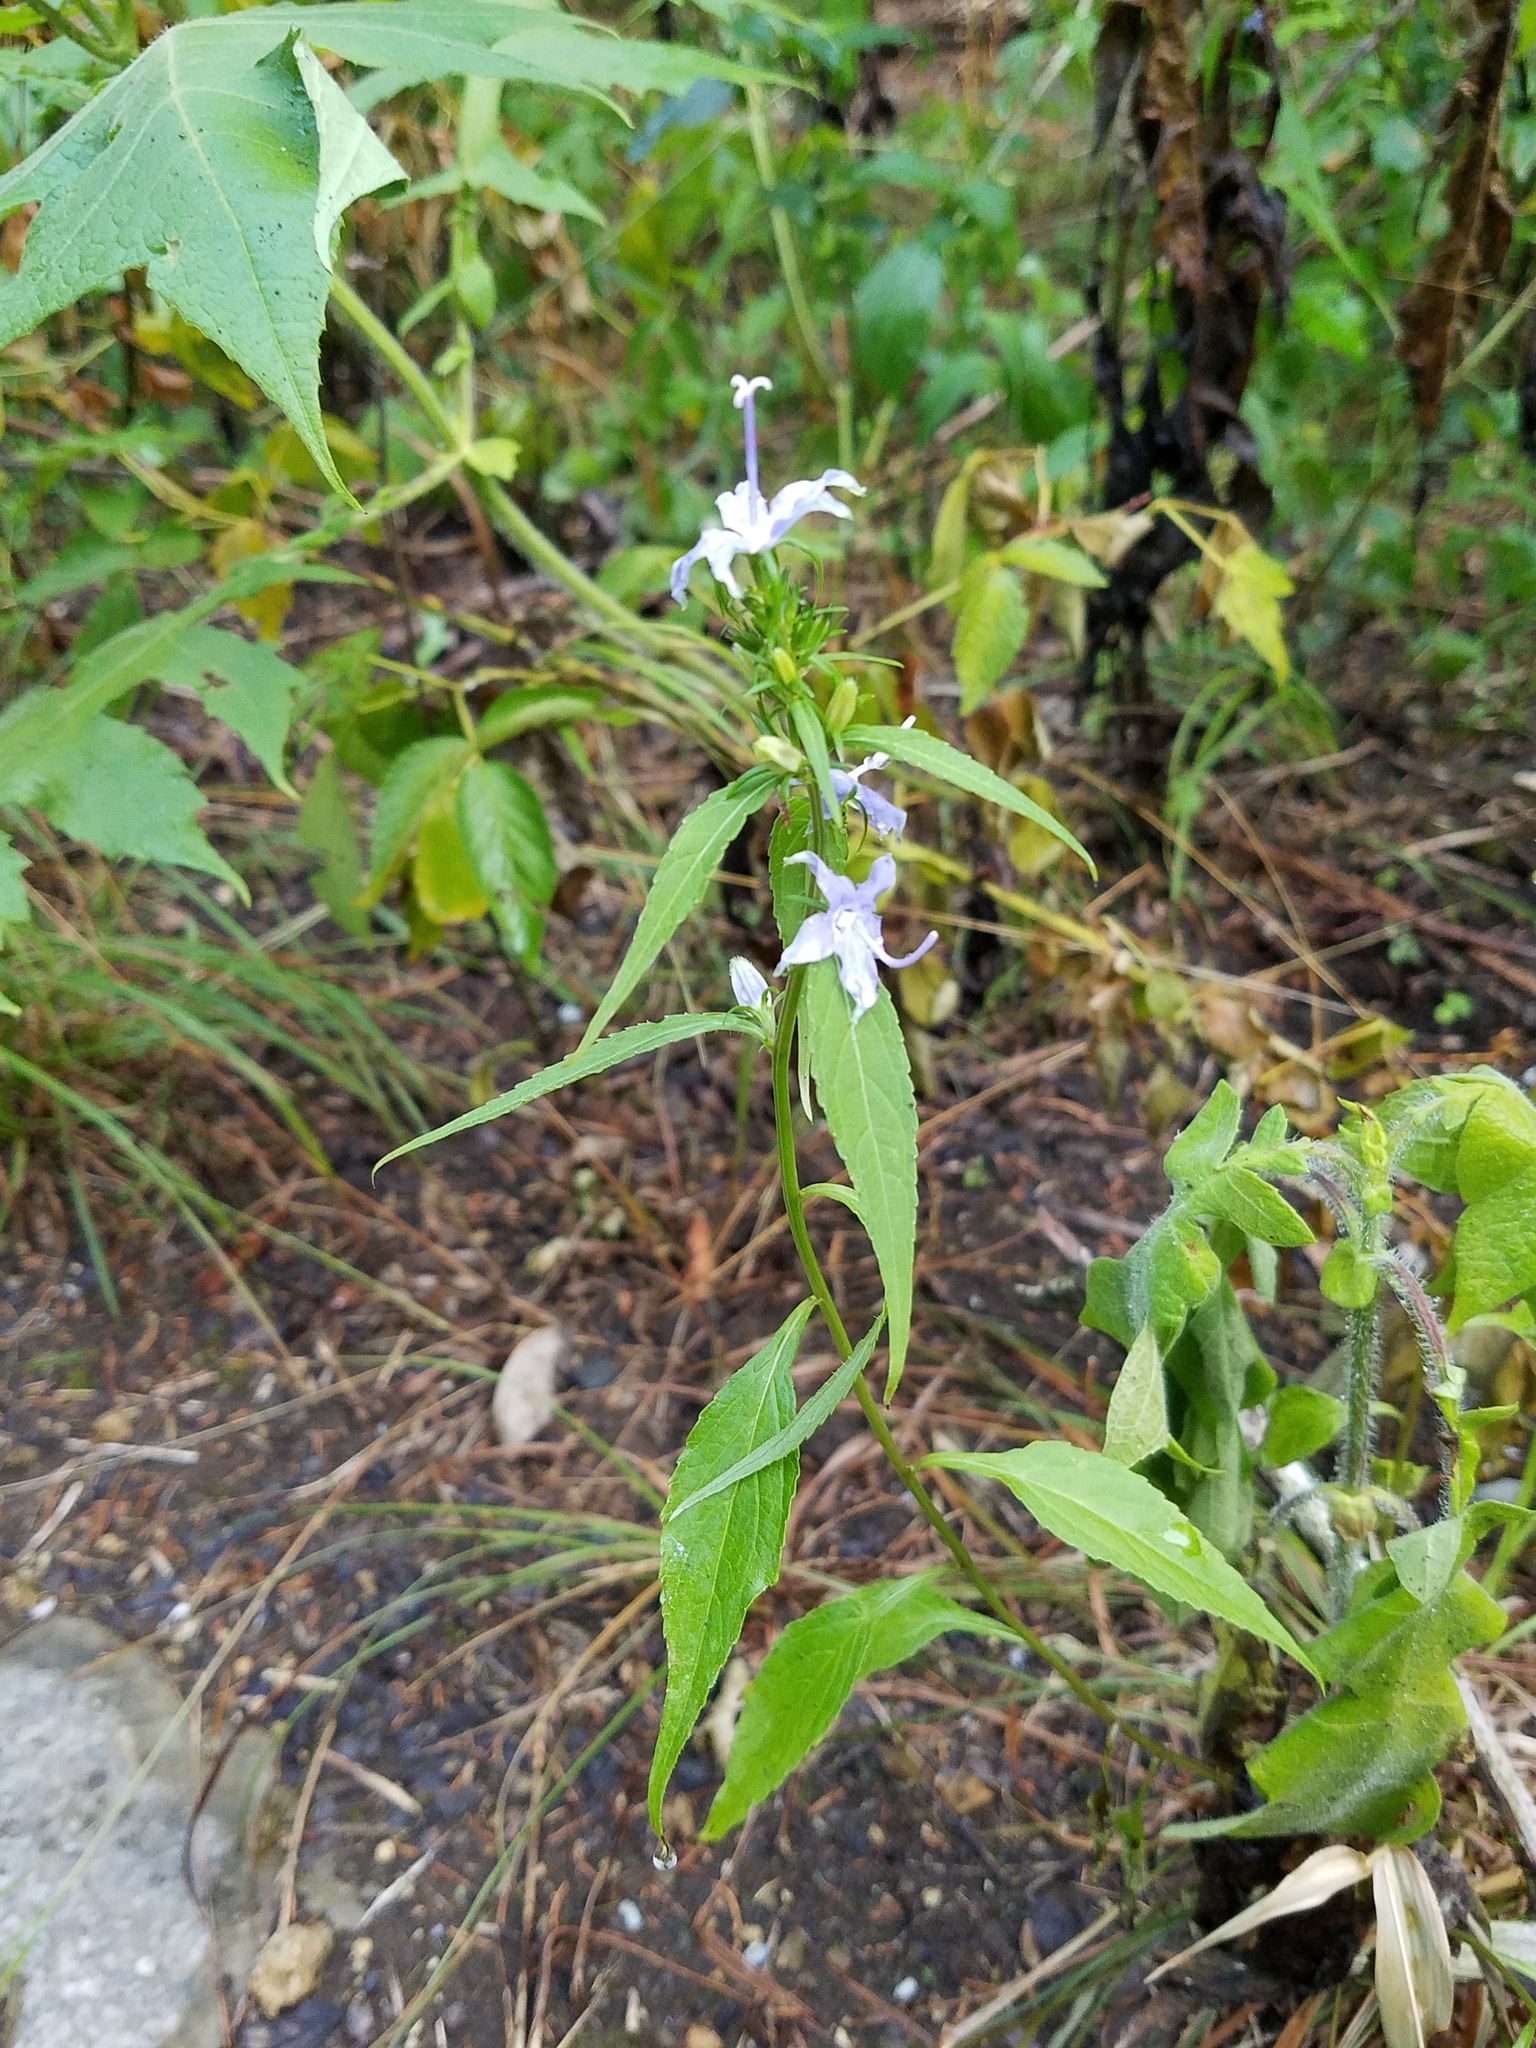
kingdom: Plantae
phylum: Tracheophyta
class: Magnoliopsida
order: Asterales
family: Campanulaceae
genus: Campanulastrum
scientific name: Campanulastrum americanum
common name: American bellflower
